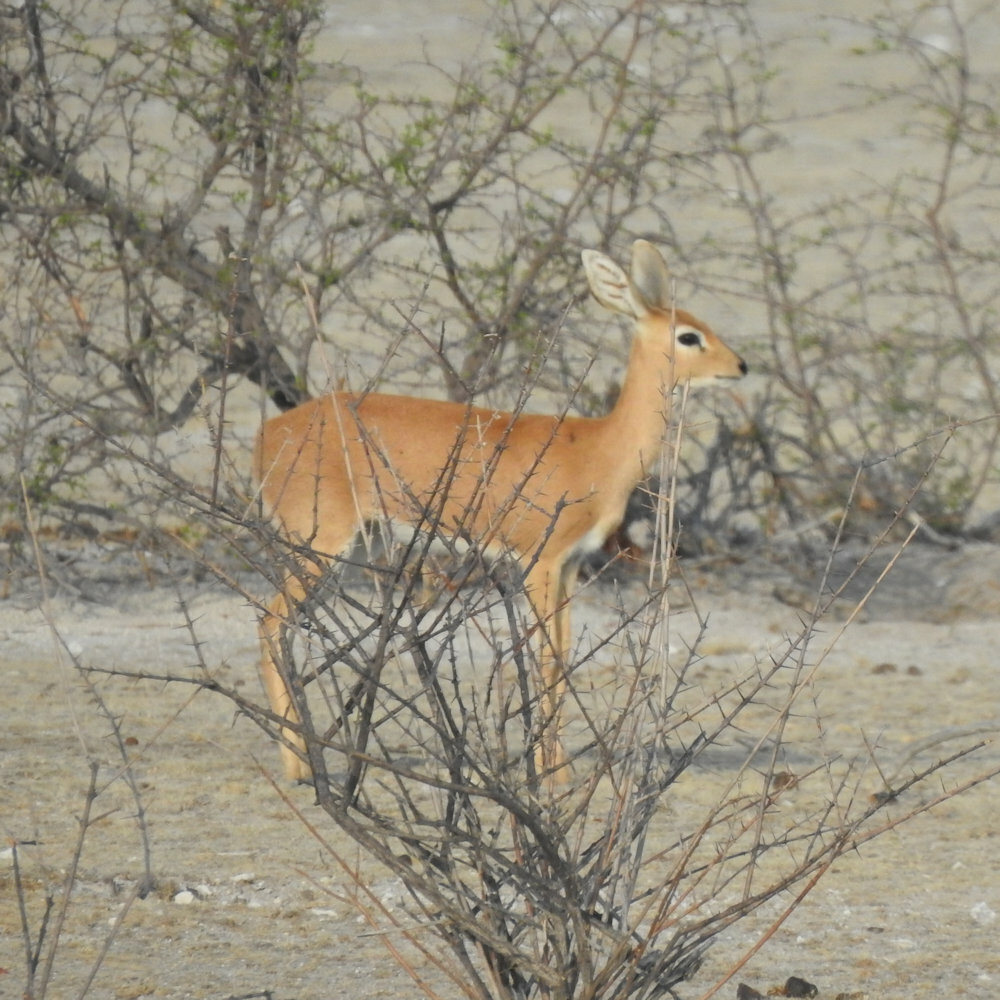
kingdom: Animalia
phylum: Chordata
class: Mammalia
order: Artiodactyla
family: Bovidae
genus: Raphicerus
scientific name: Raphicerus campestris
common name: Steenbok
